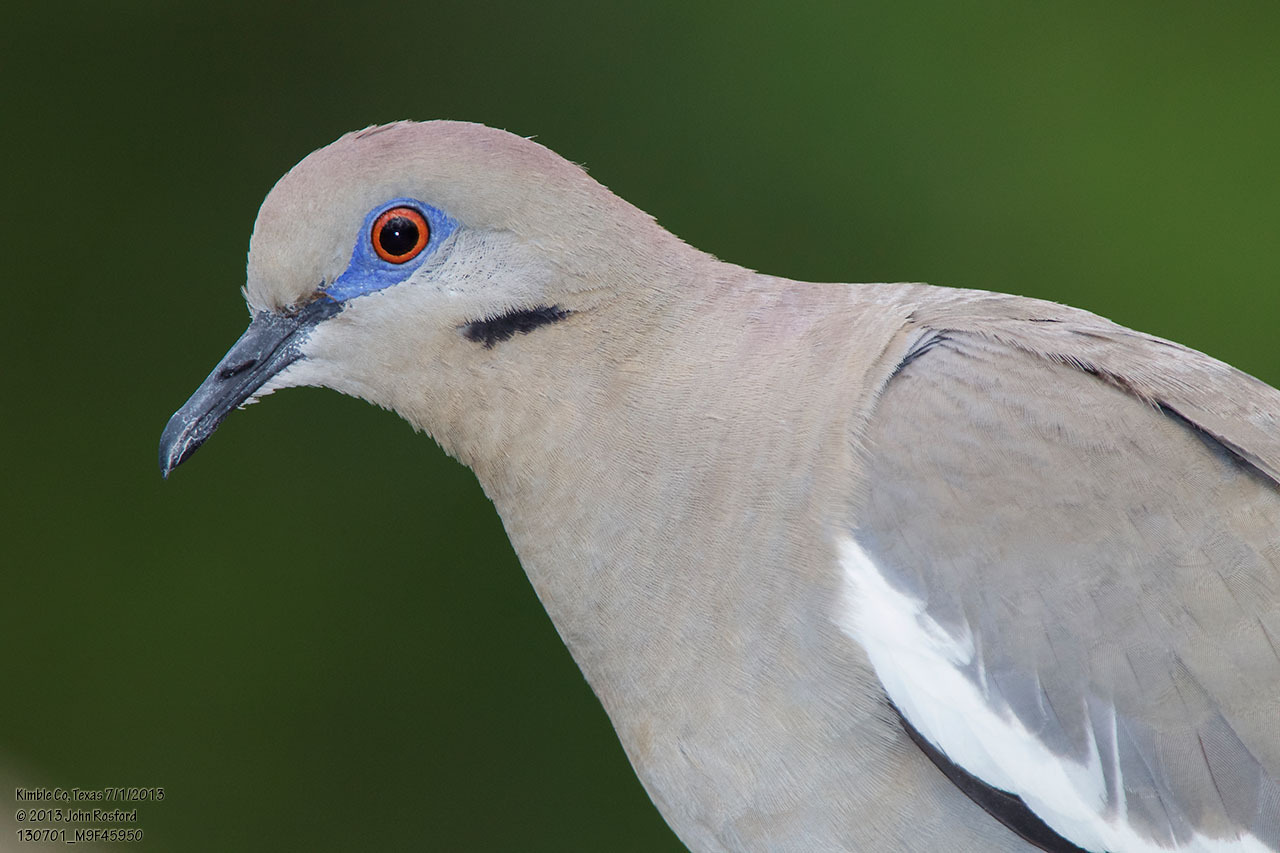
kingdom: Animalia
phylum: Chordata
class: Aves
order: Columbiformes
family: Columbidae
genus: Zenaida
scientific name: Zenaida asiatica
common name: White-winged dove
